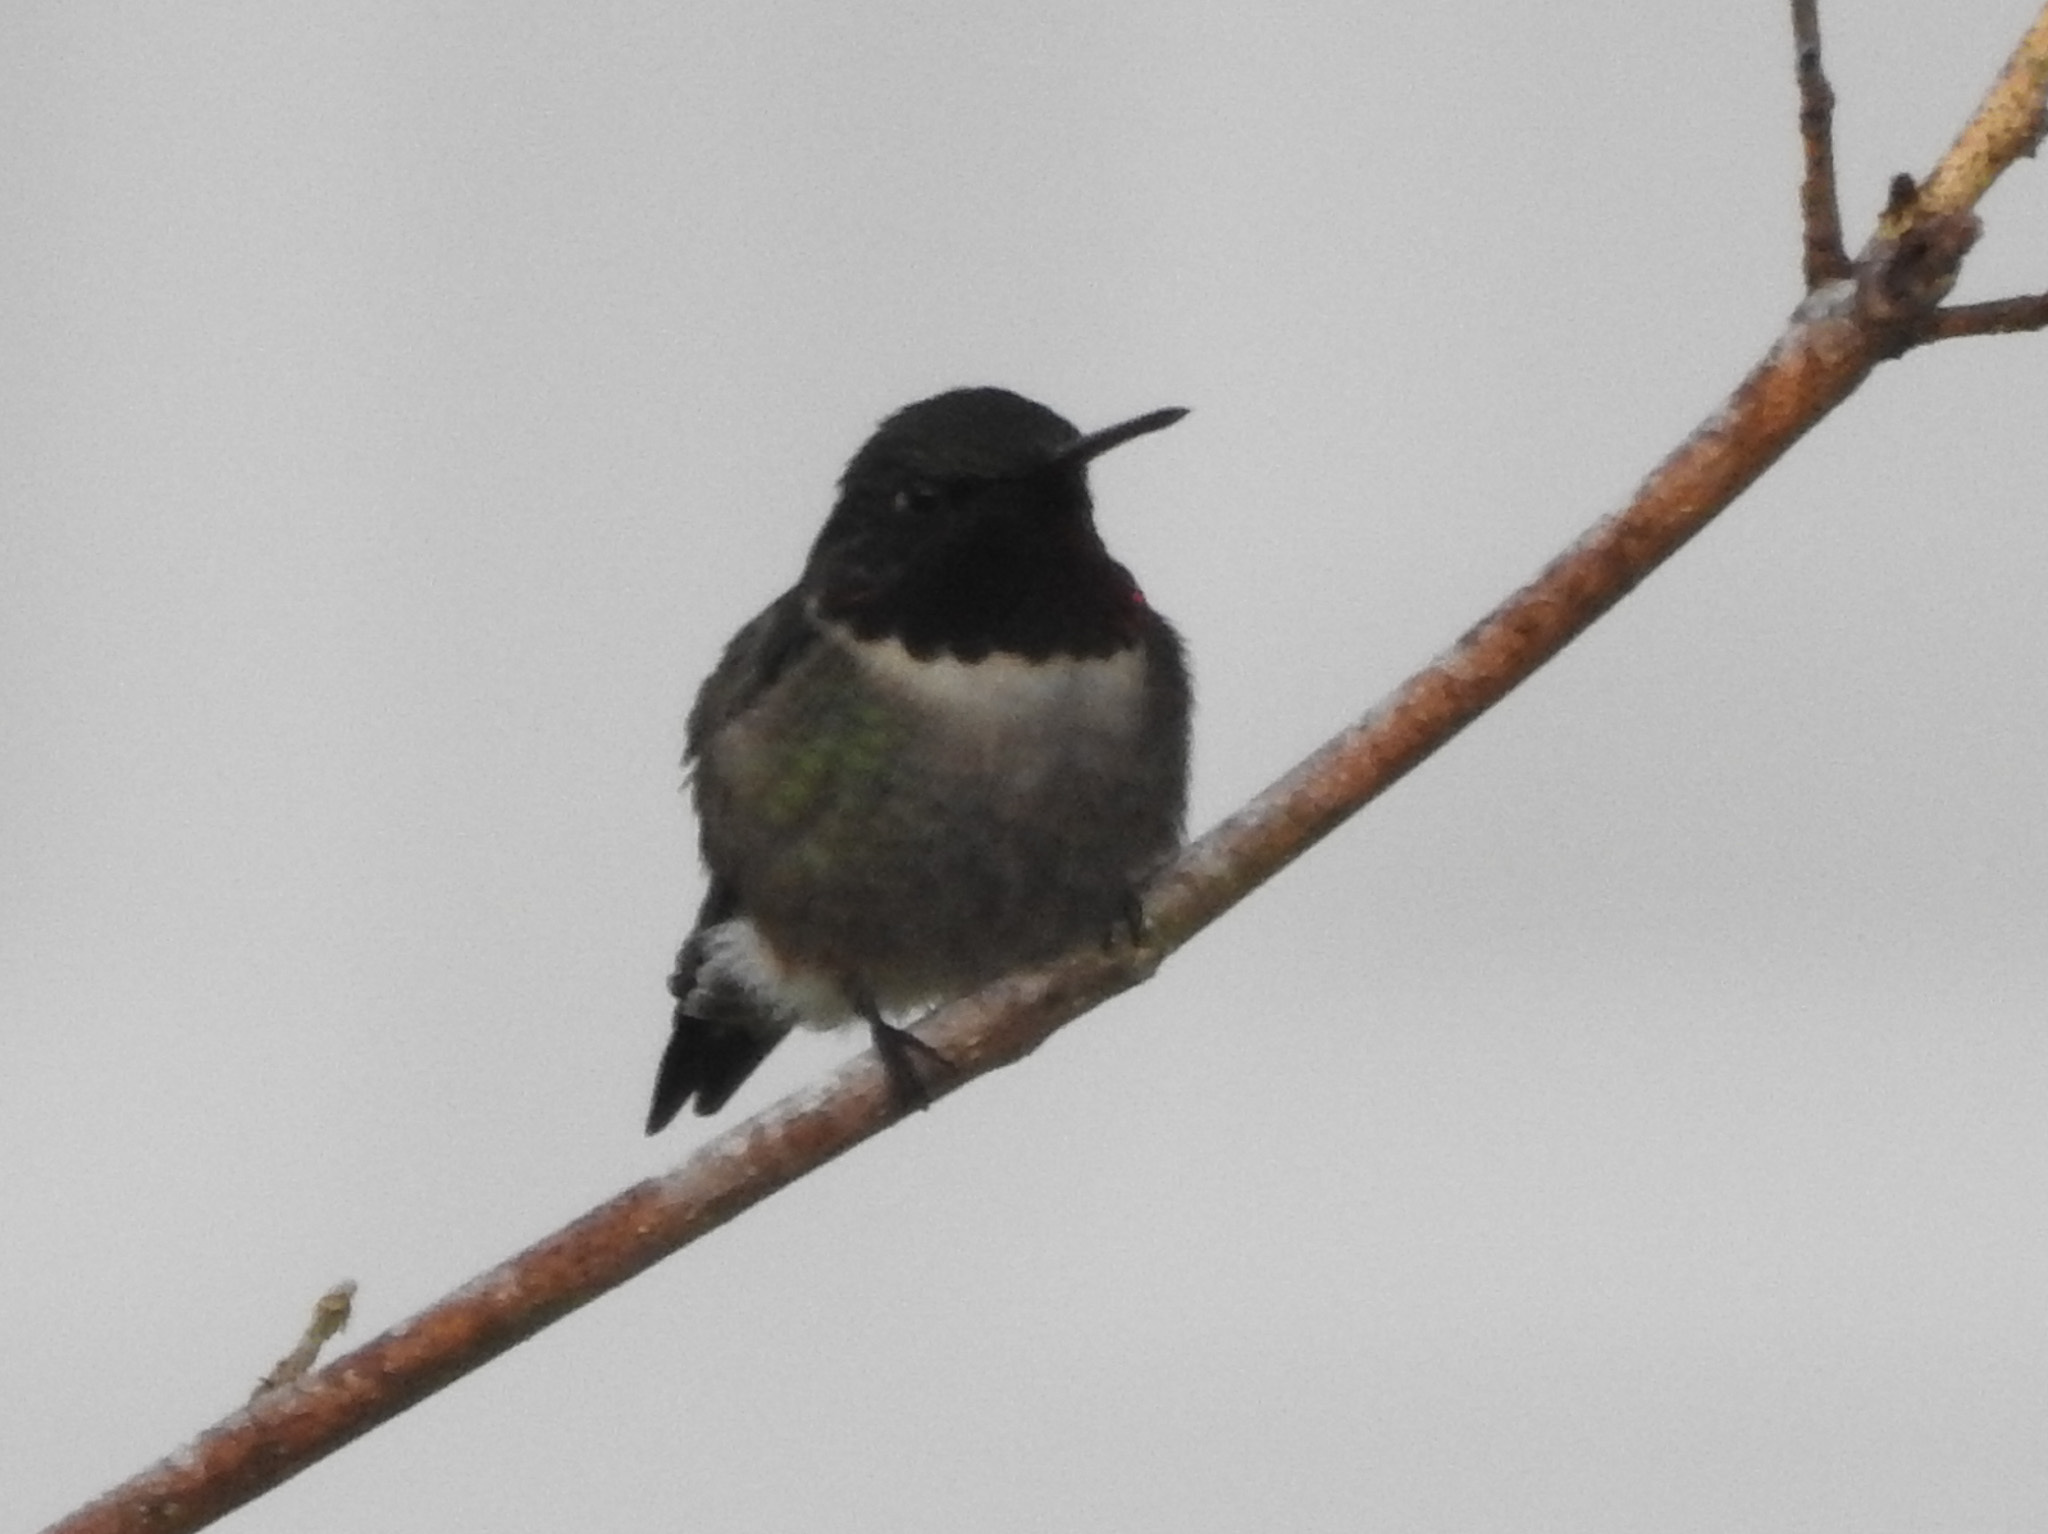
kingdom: Animalia
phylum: Chordata
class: Aves
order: Apodiformes
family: Trochilidae
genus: Archilochus
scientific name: Archilochus colubris
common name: Ruby-throated hummingbird
